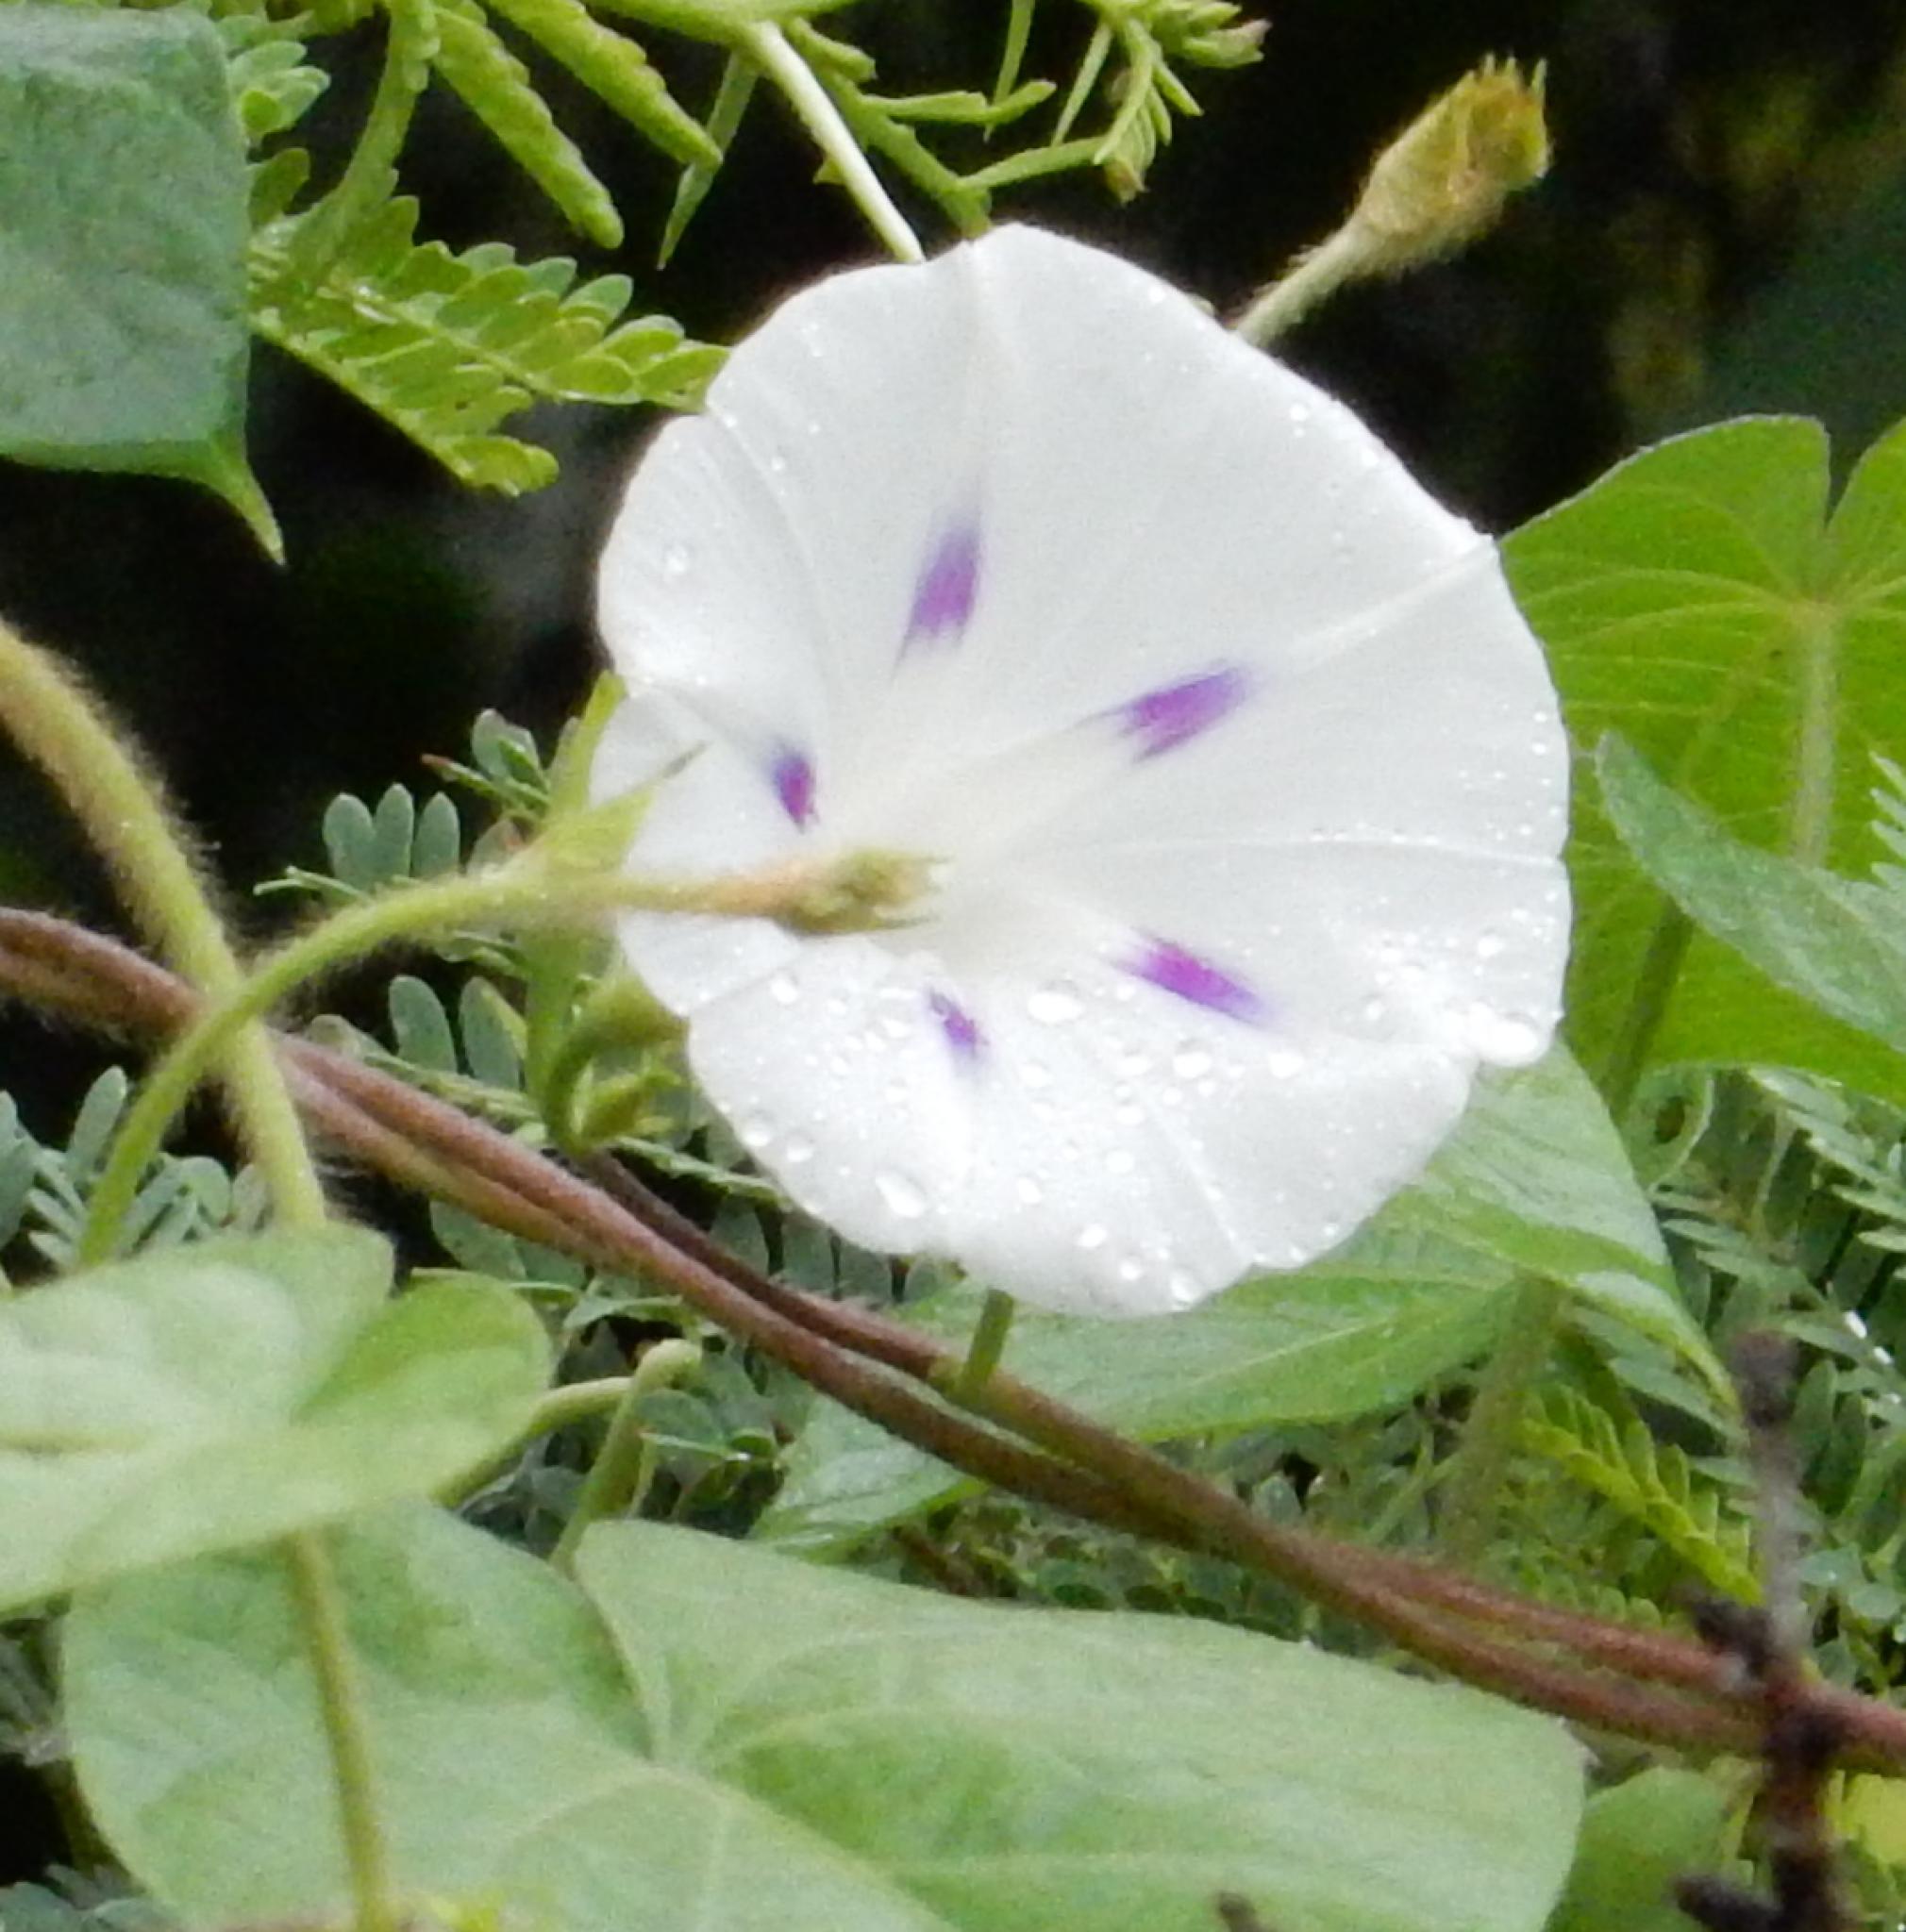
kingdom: Plantae
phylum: Tracheophyta
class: Magnoliopsida
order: Solanales
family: Convolvulaceae
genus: Ipomoea
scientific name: Ipomoea purpurea
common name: Common morning-glory
